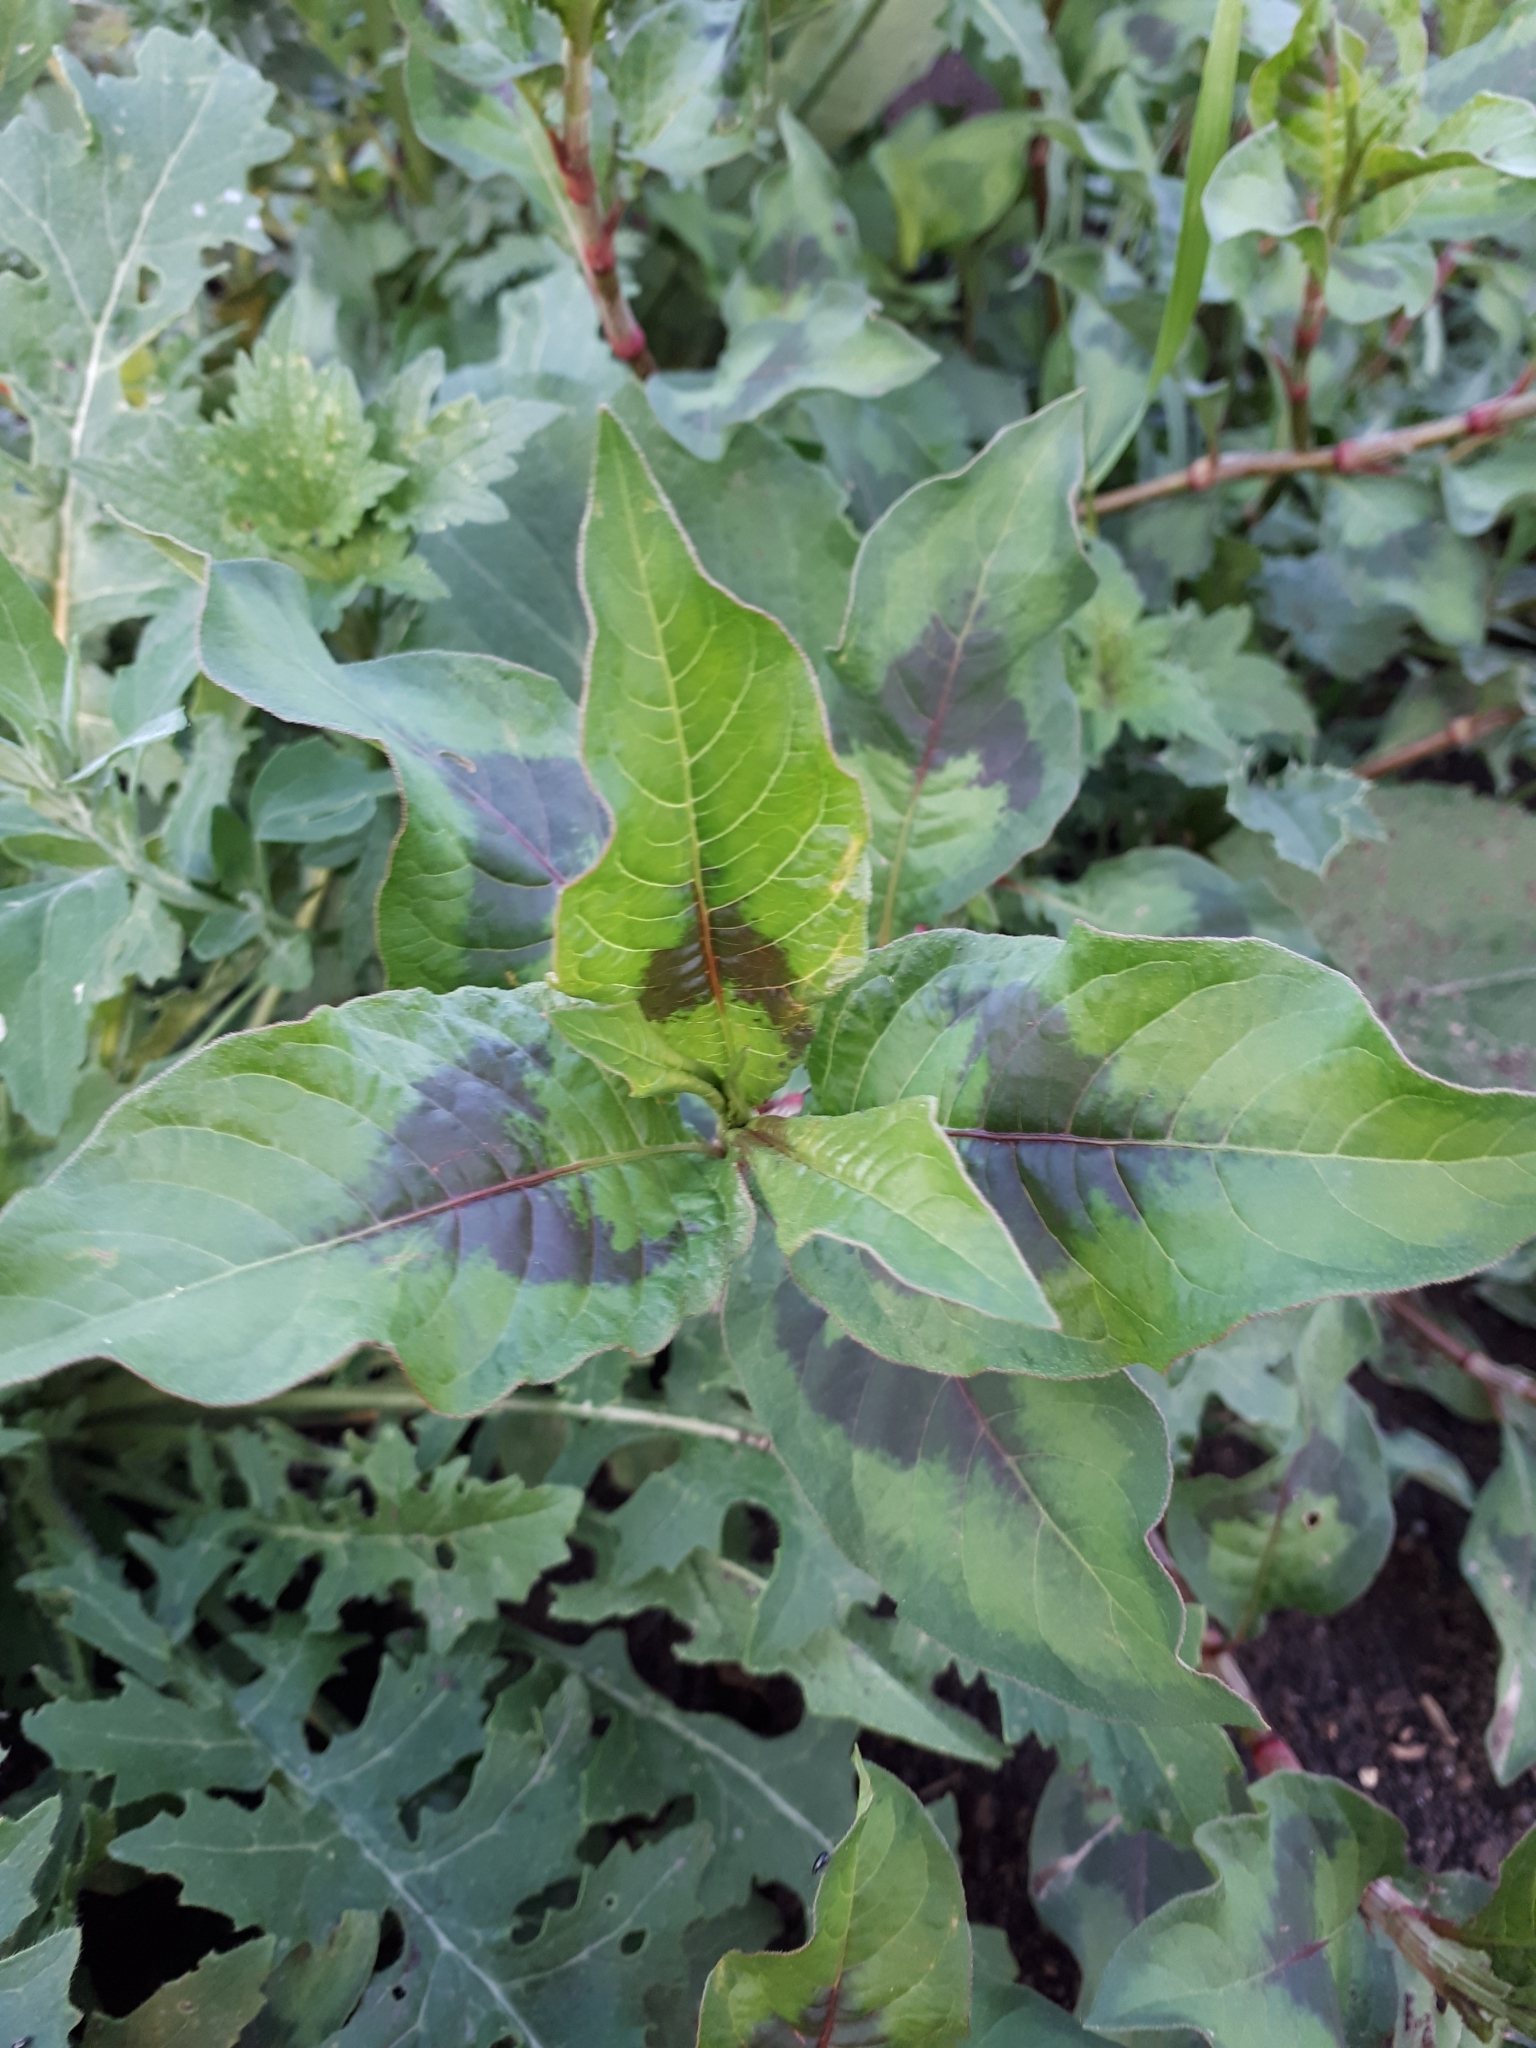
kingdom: Plantae
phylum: Tracheophyta
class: Magnoliopsida
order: Caryophyllales
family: Polygonaceae
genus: Persicaria
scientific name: Persicaria lapathifolia
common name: Curlytop knotweed
